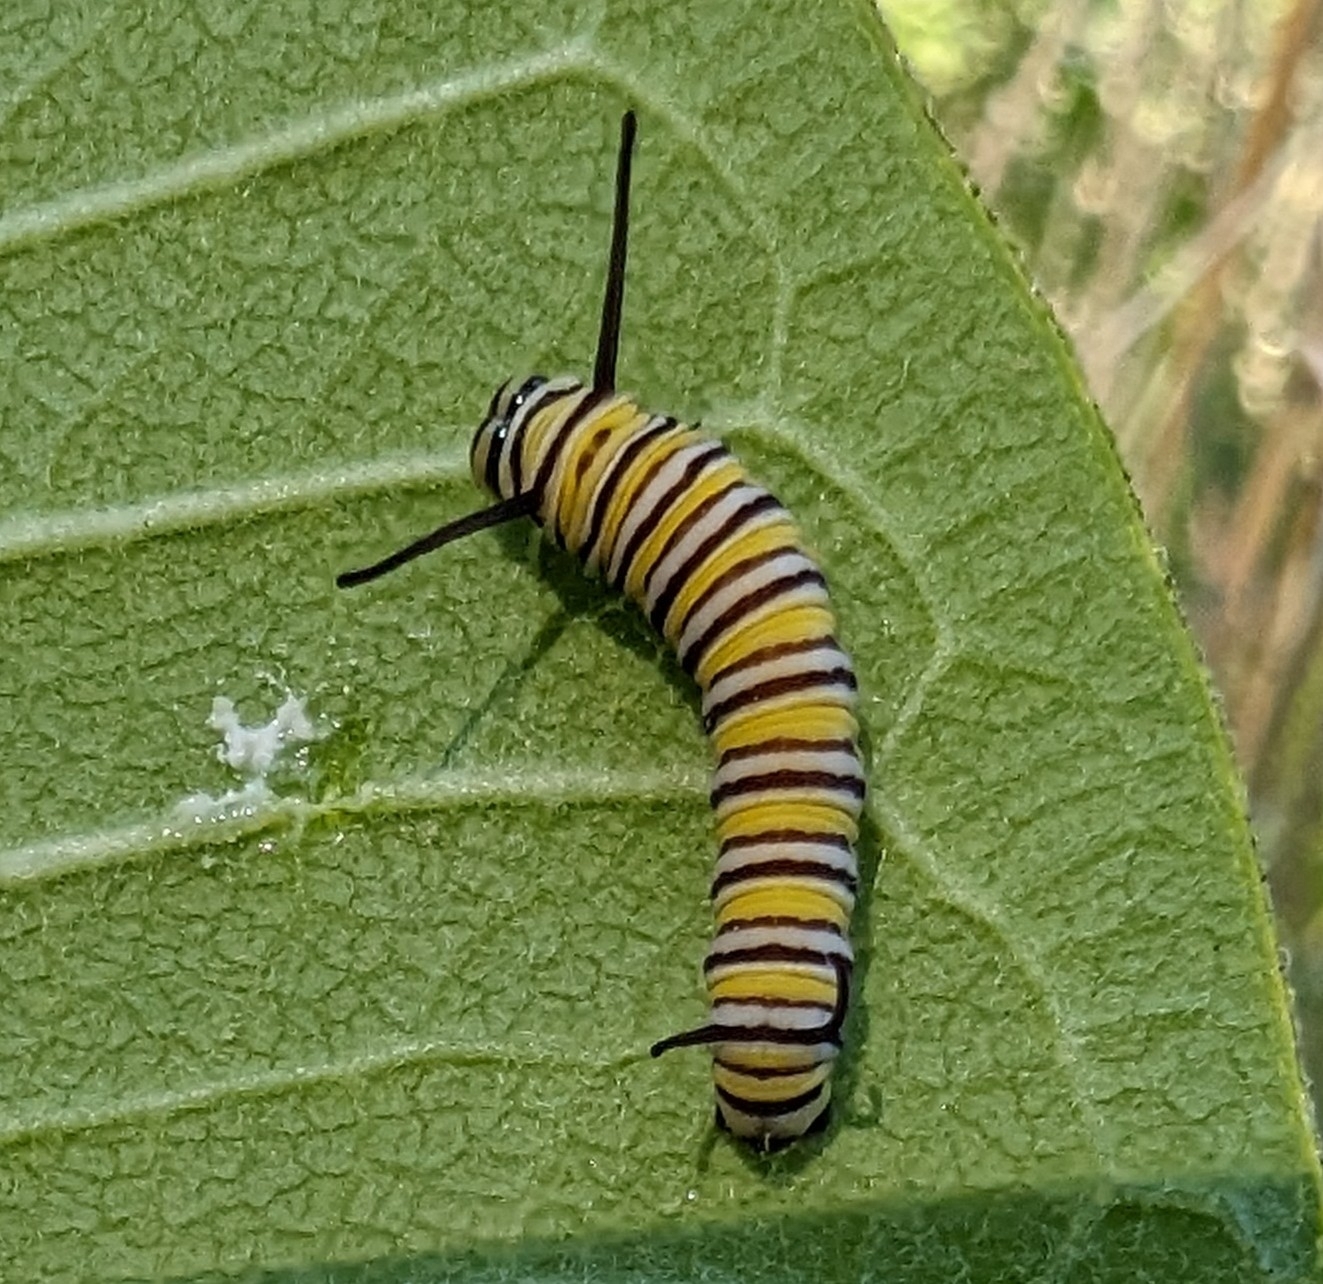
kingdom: Animalia
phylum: Arthropoda
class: Insecta
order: Lepidoptera
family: Nymphalidae
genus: Danaus
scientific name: Danaus plexippus
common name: Monarch
